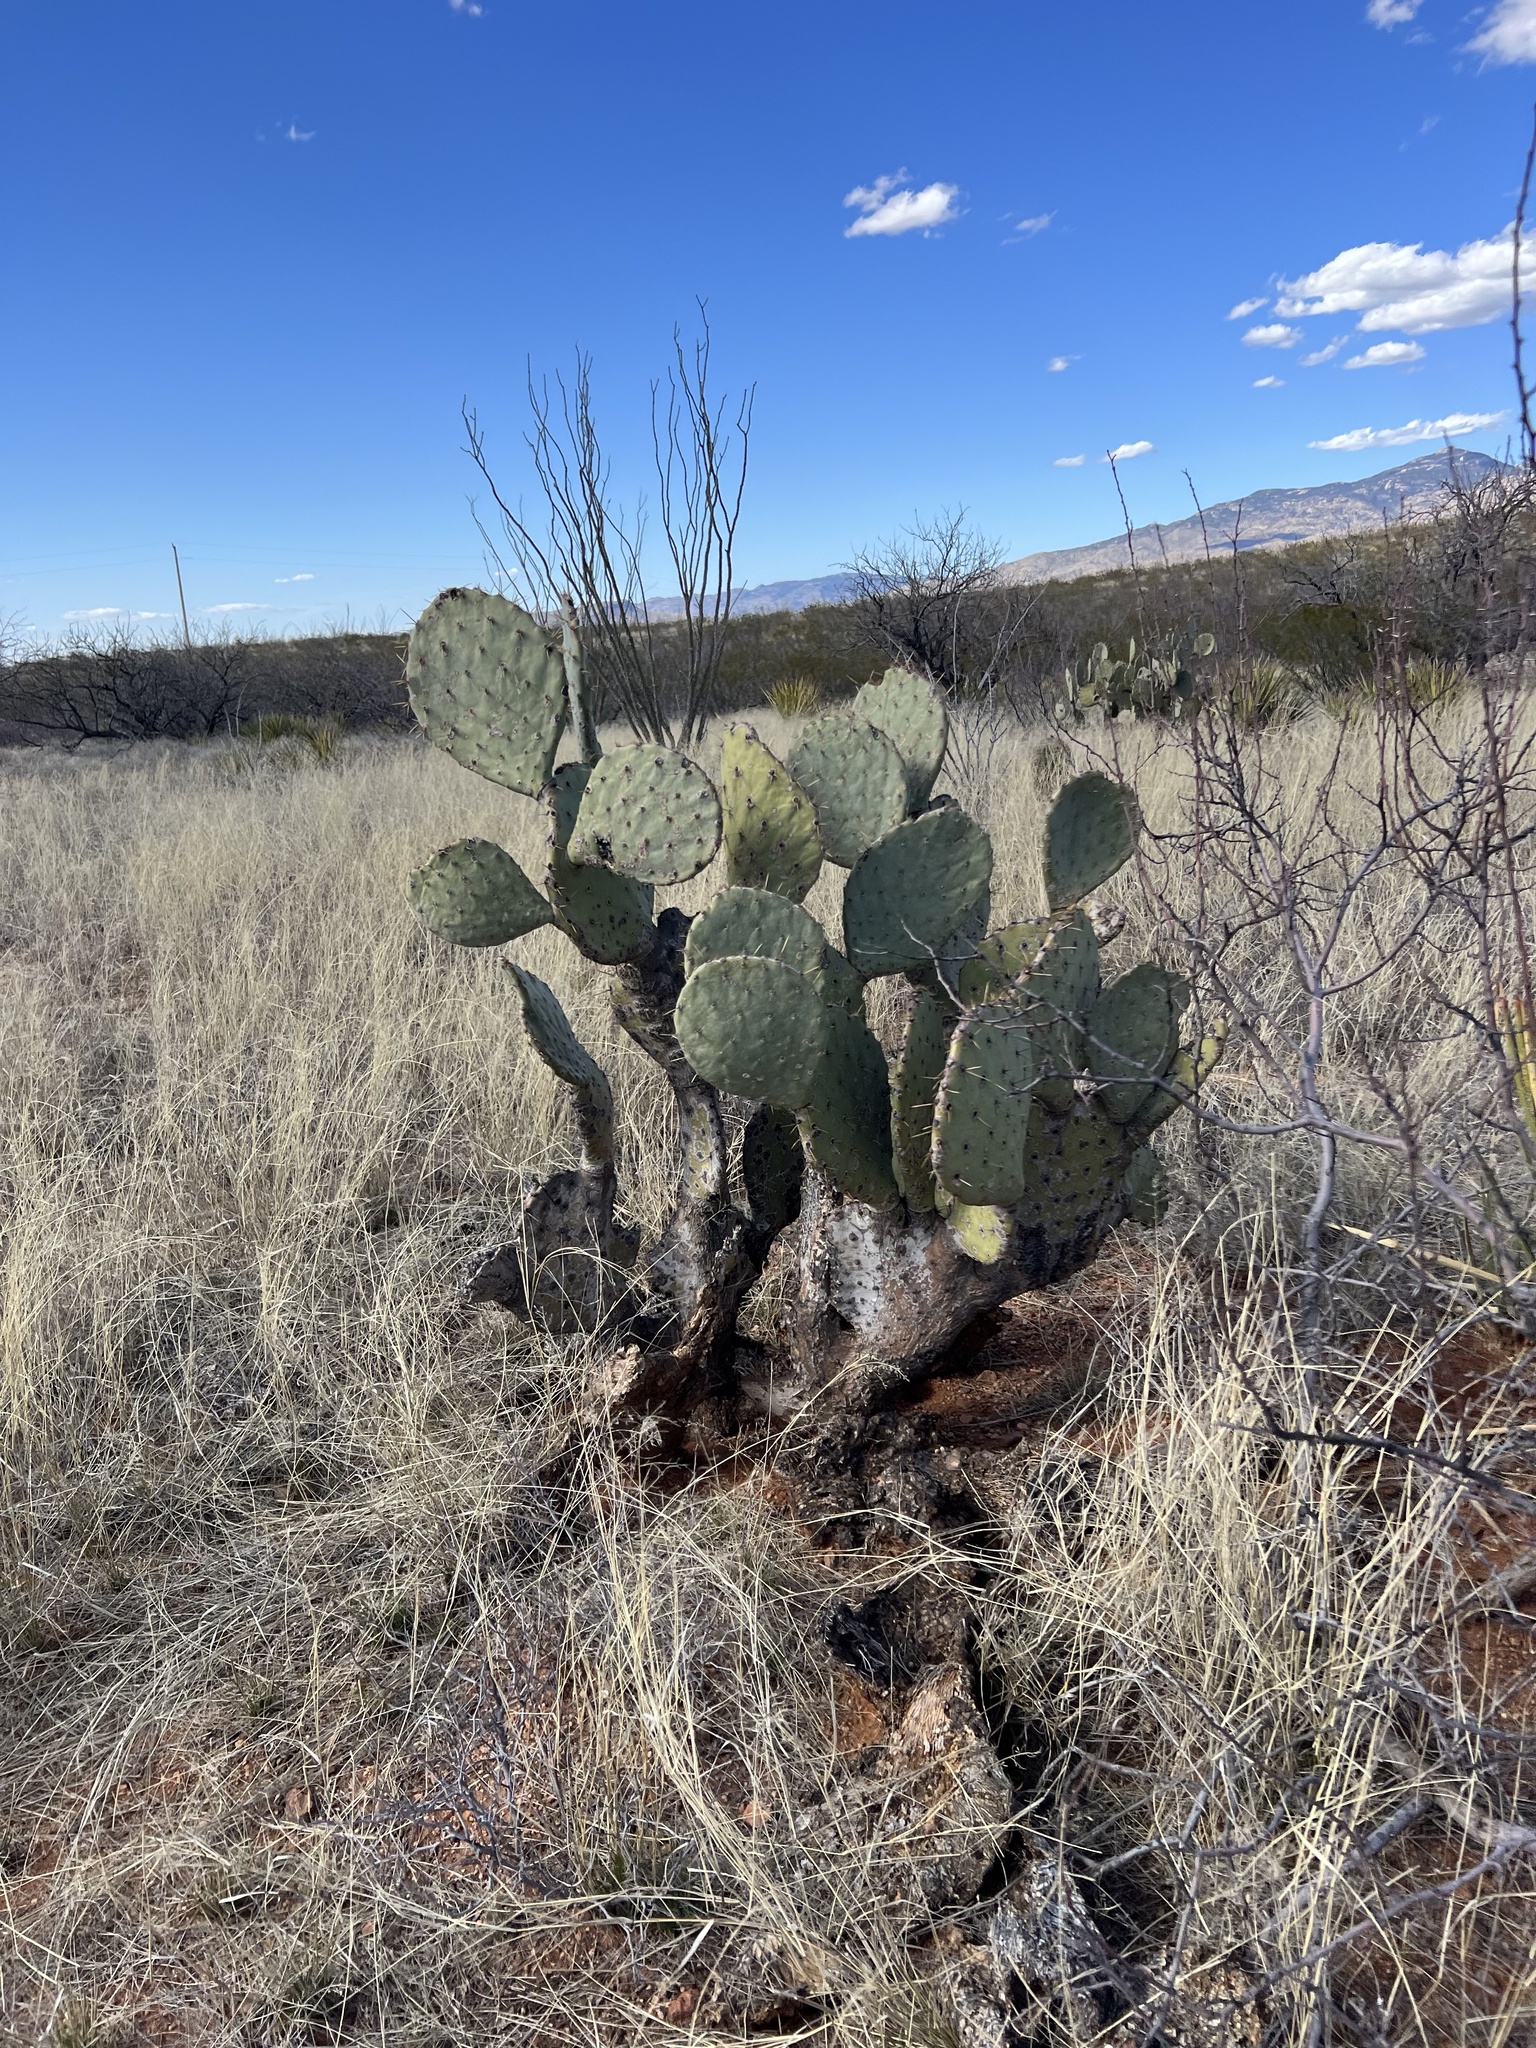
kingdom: Plantae
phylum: Tracheophyta
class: Magnoliopsida
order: Caryophyllales
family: Cactaceae
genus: Opuntia
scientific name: Opuntia engelmannii
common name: Cactus-apple
